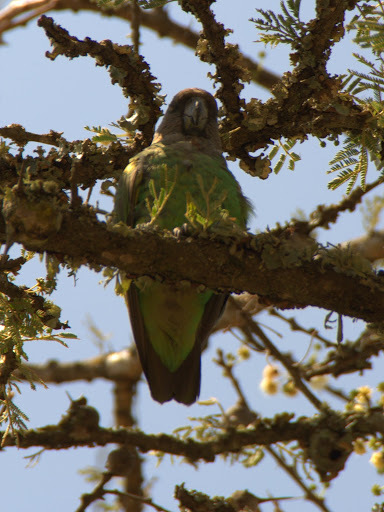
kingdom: Animalia
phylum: Chordata
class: Aves
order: Psittaciformes
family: Psittacidae
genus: Poicephalus
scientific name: Poicephalus meyeri
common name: Meyer's parrot
